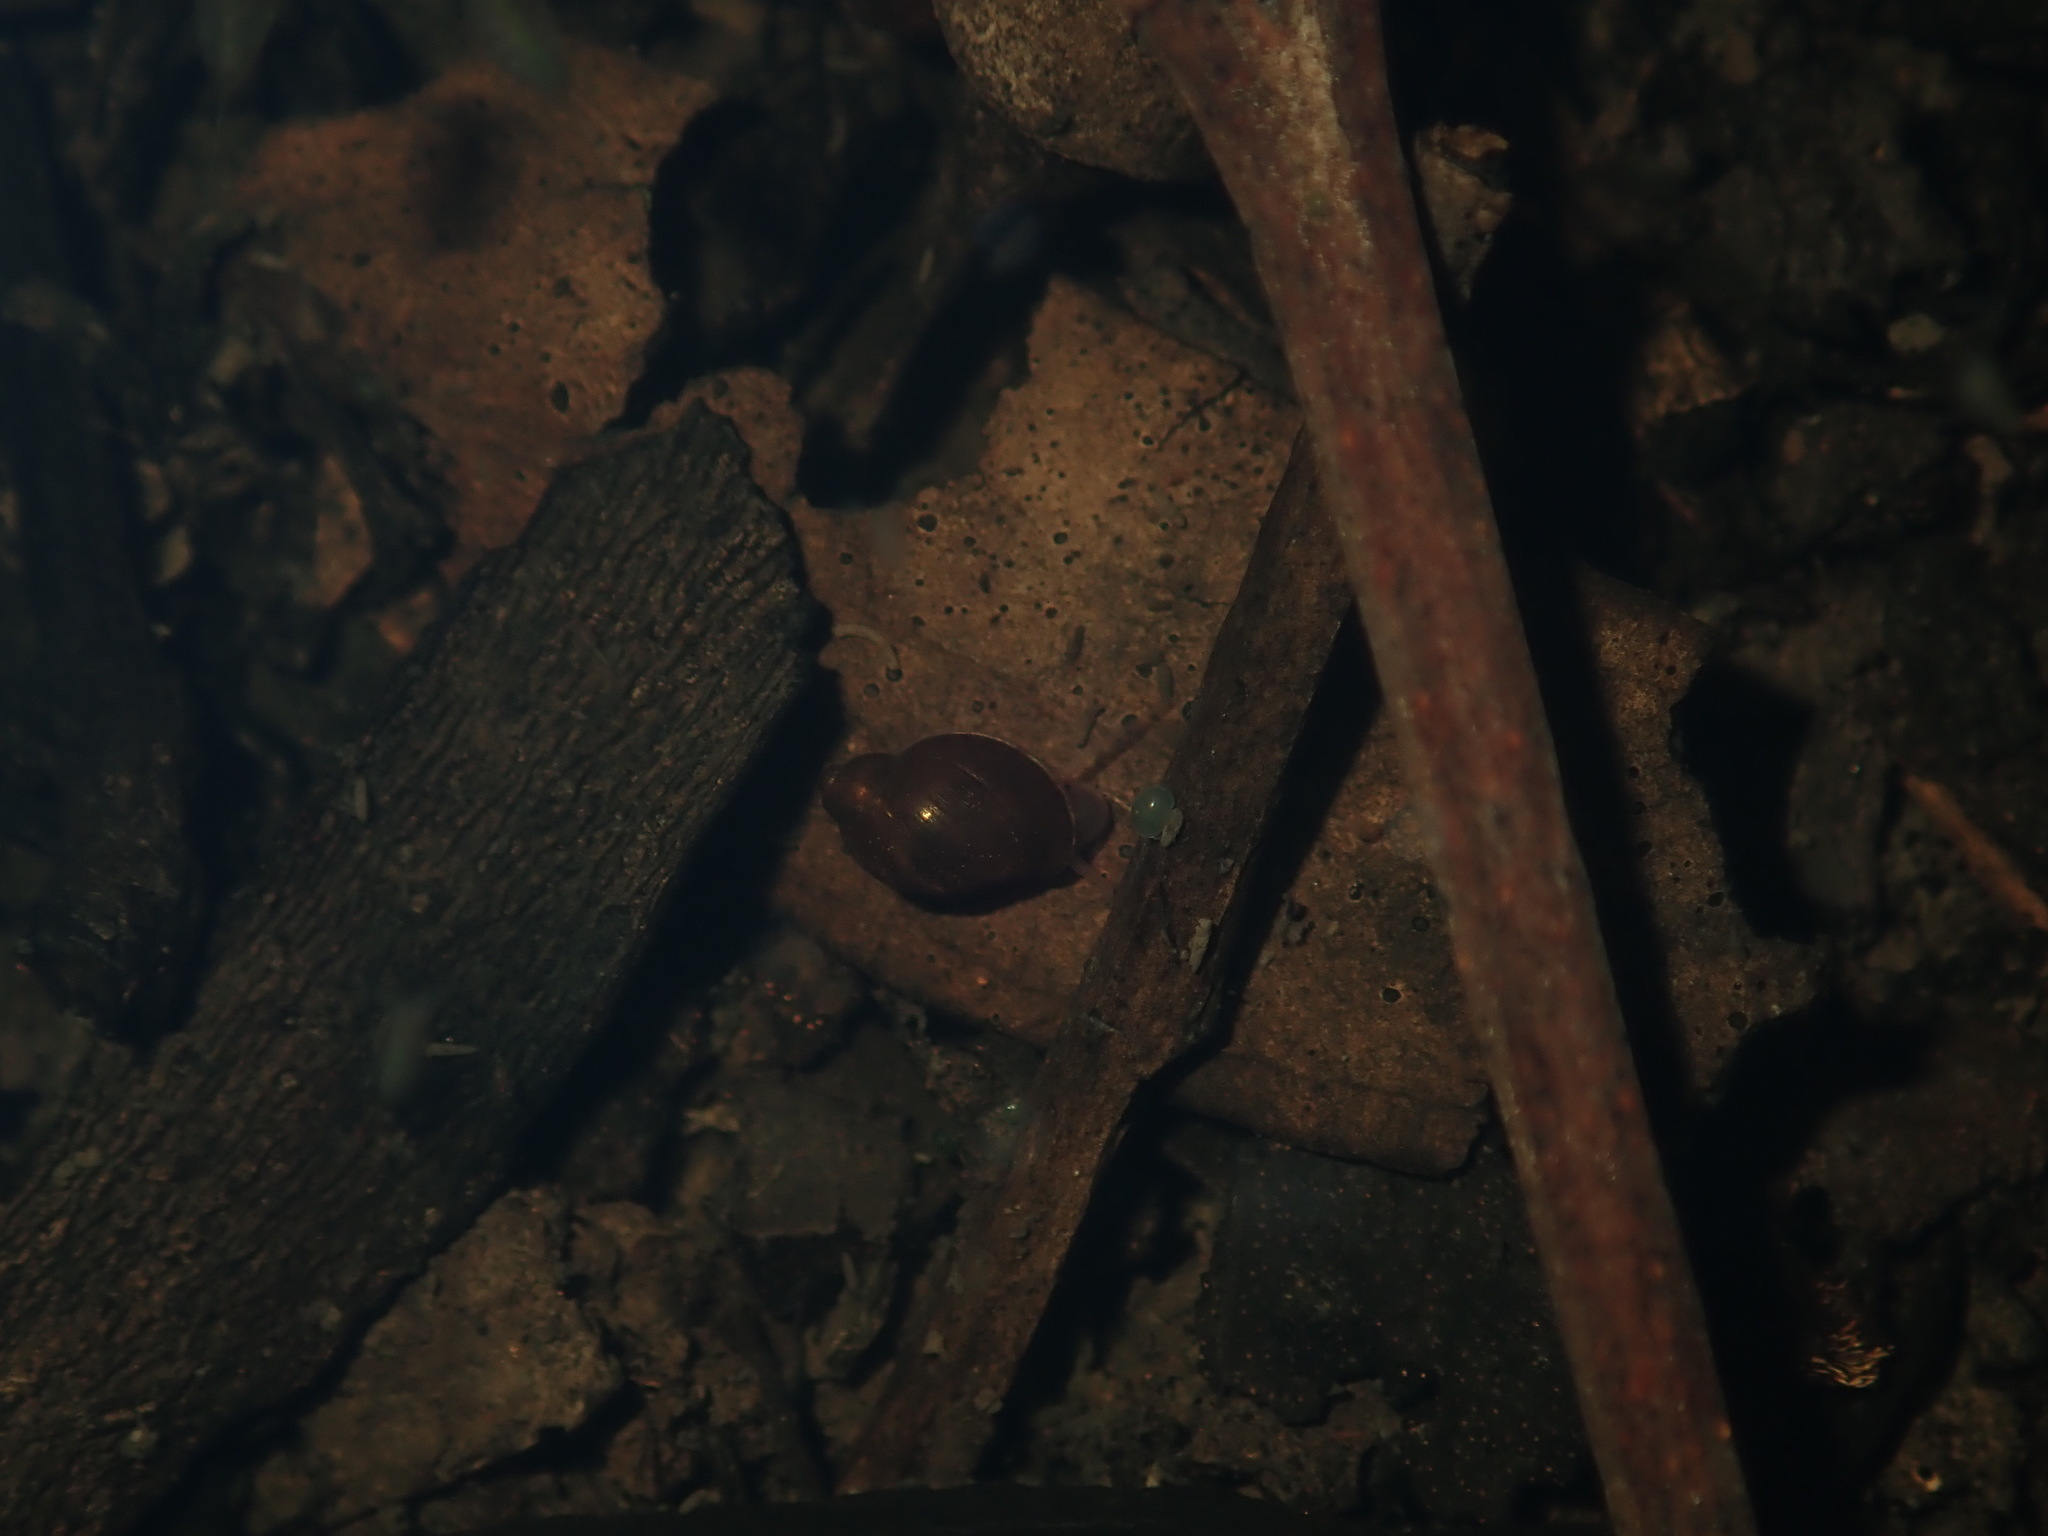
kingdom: Animalia
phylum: Mollusca
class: Gastropoda
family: Planorbidae
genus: Isidorella
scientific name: Isidorella hainesii
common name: Haine’s pouch snail
